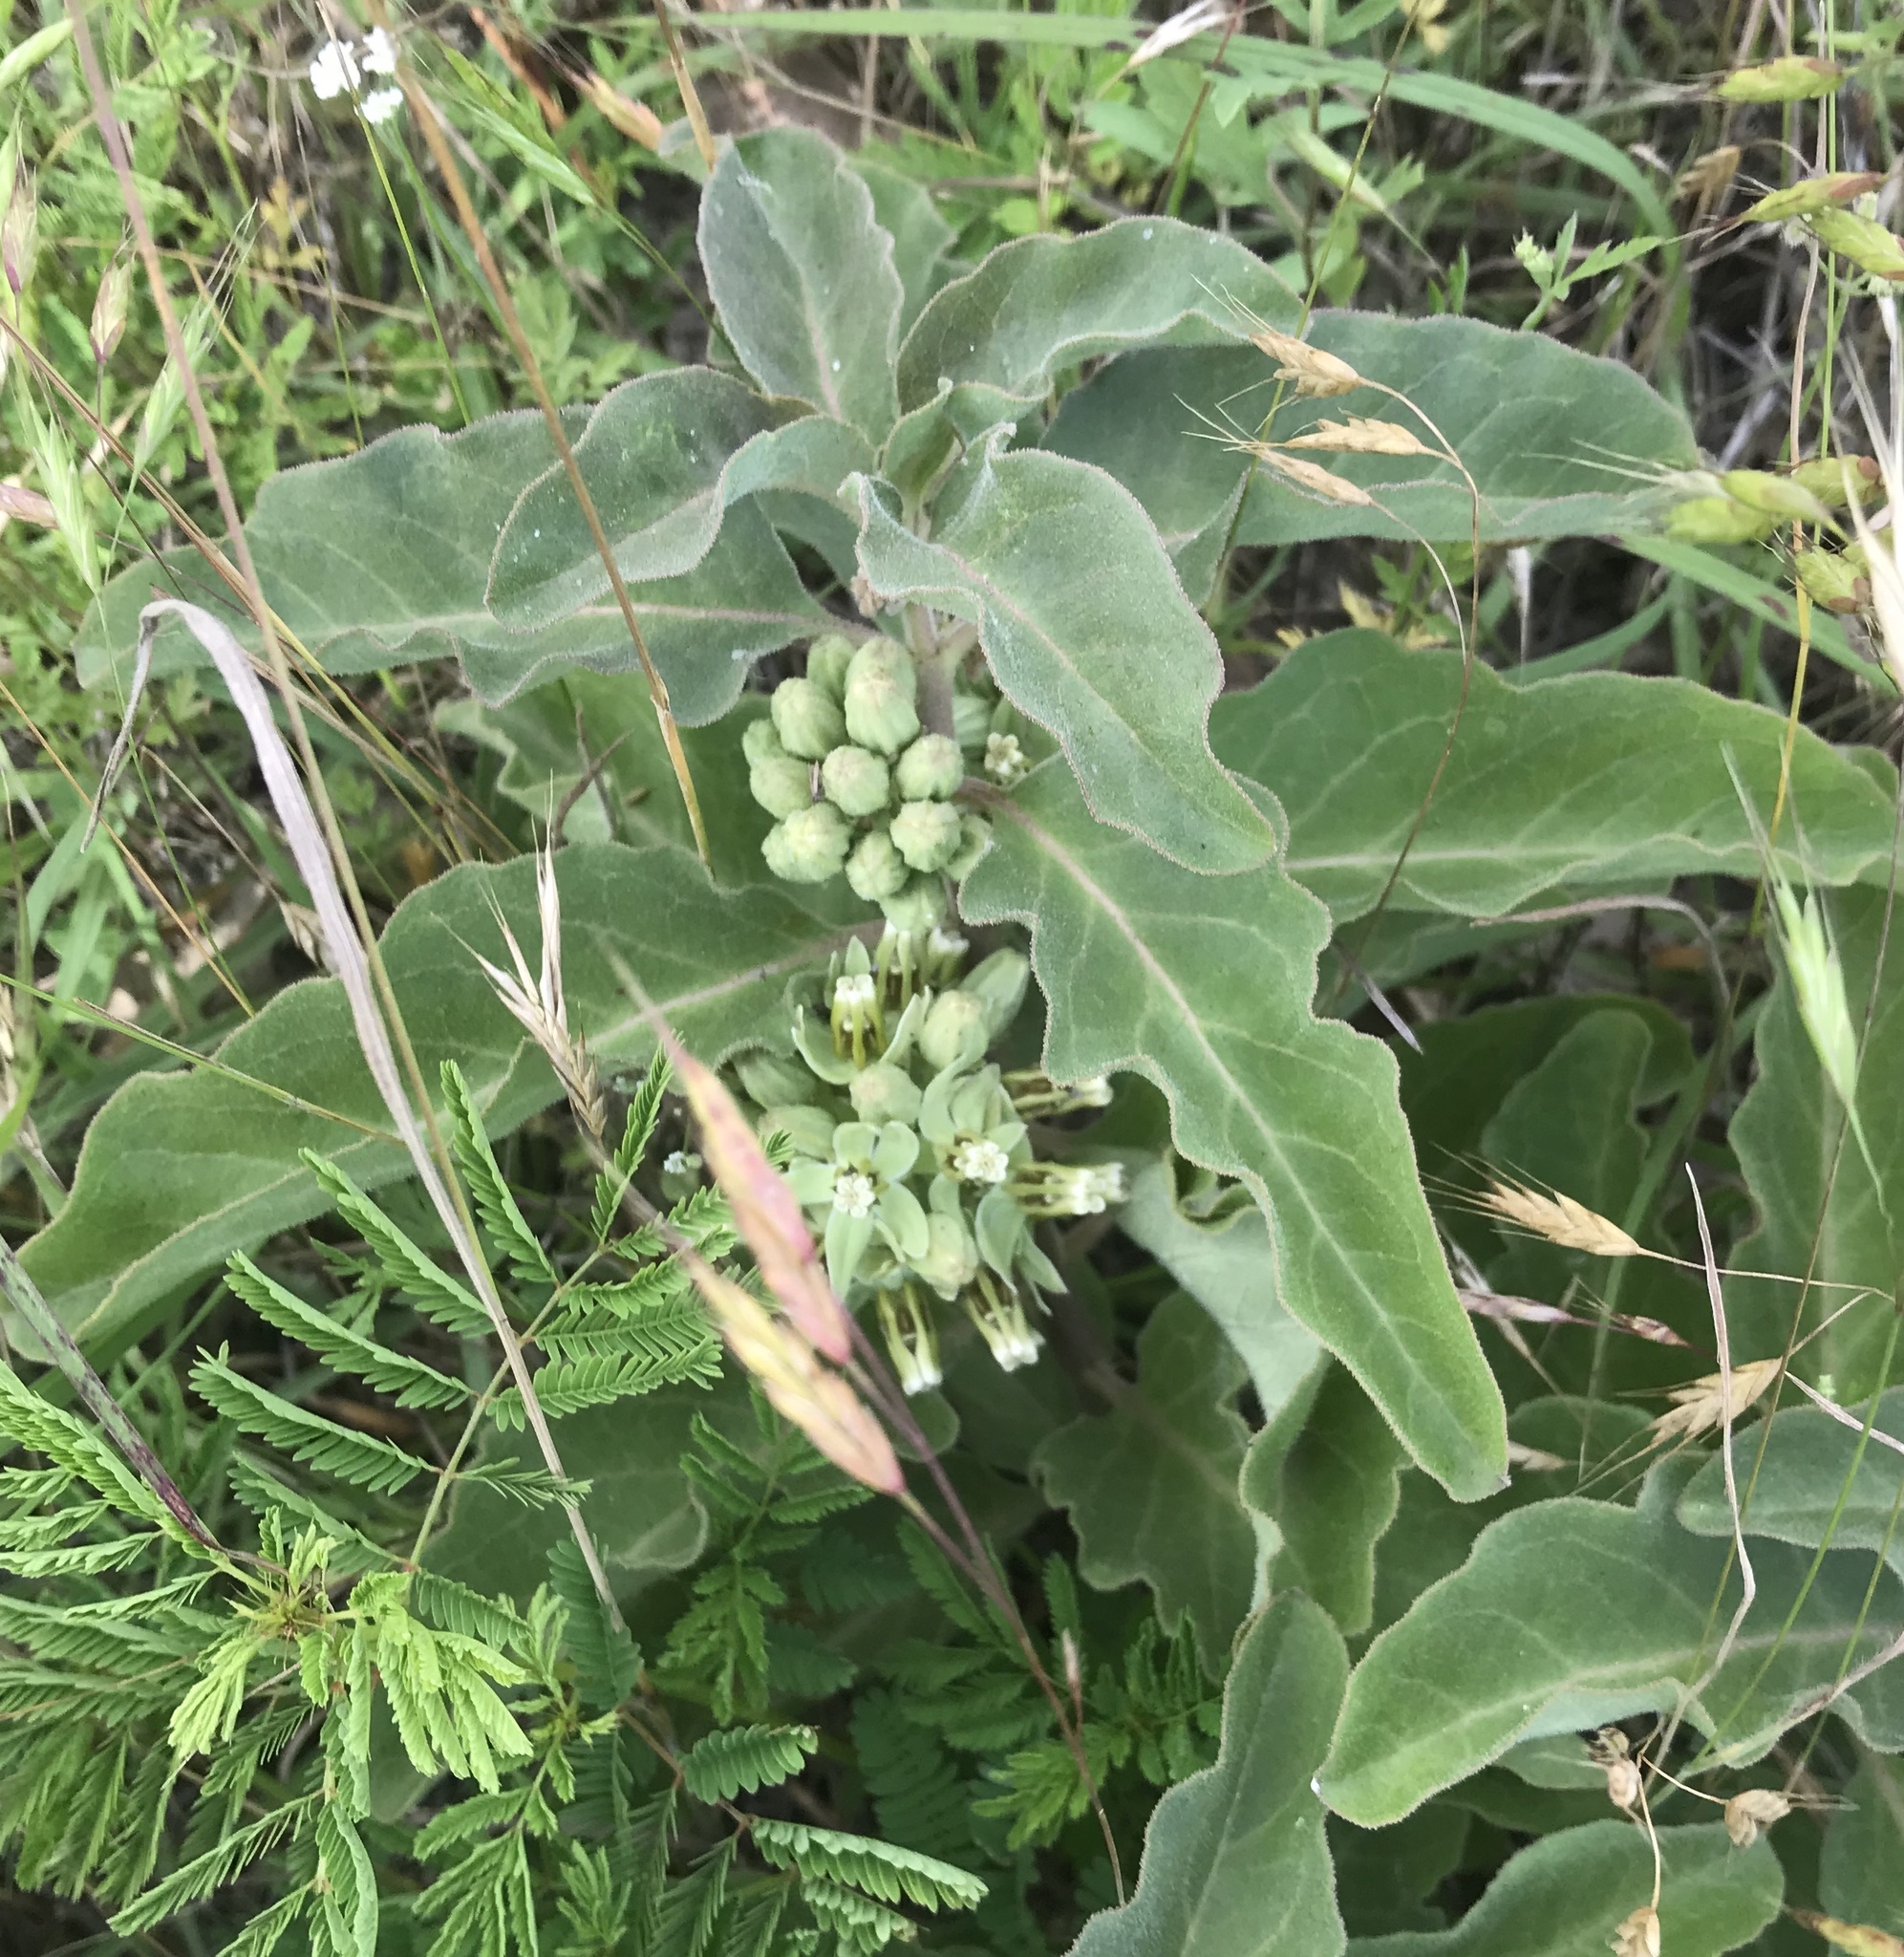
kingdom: Plantae
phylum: Tracheophyta
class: Magnoliopsida
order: Gentianales
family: Apocynaceae
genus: Asclepias
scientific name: Asclepias oenotheroides
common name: Zizotes milkweed
